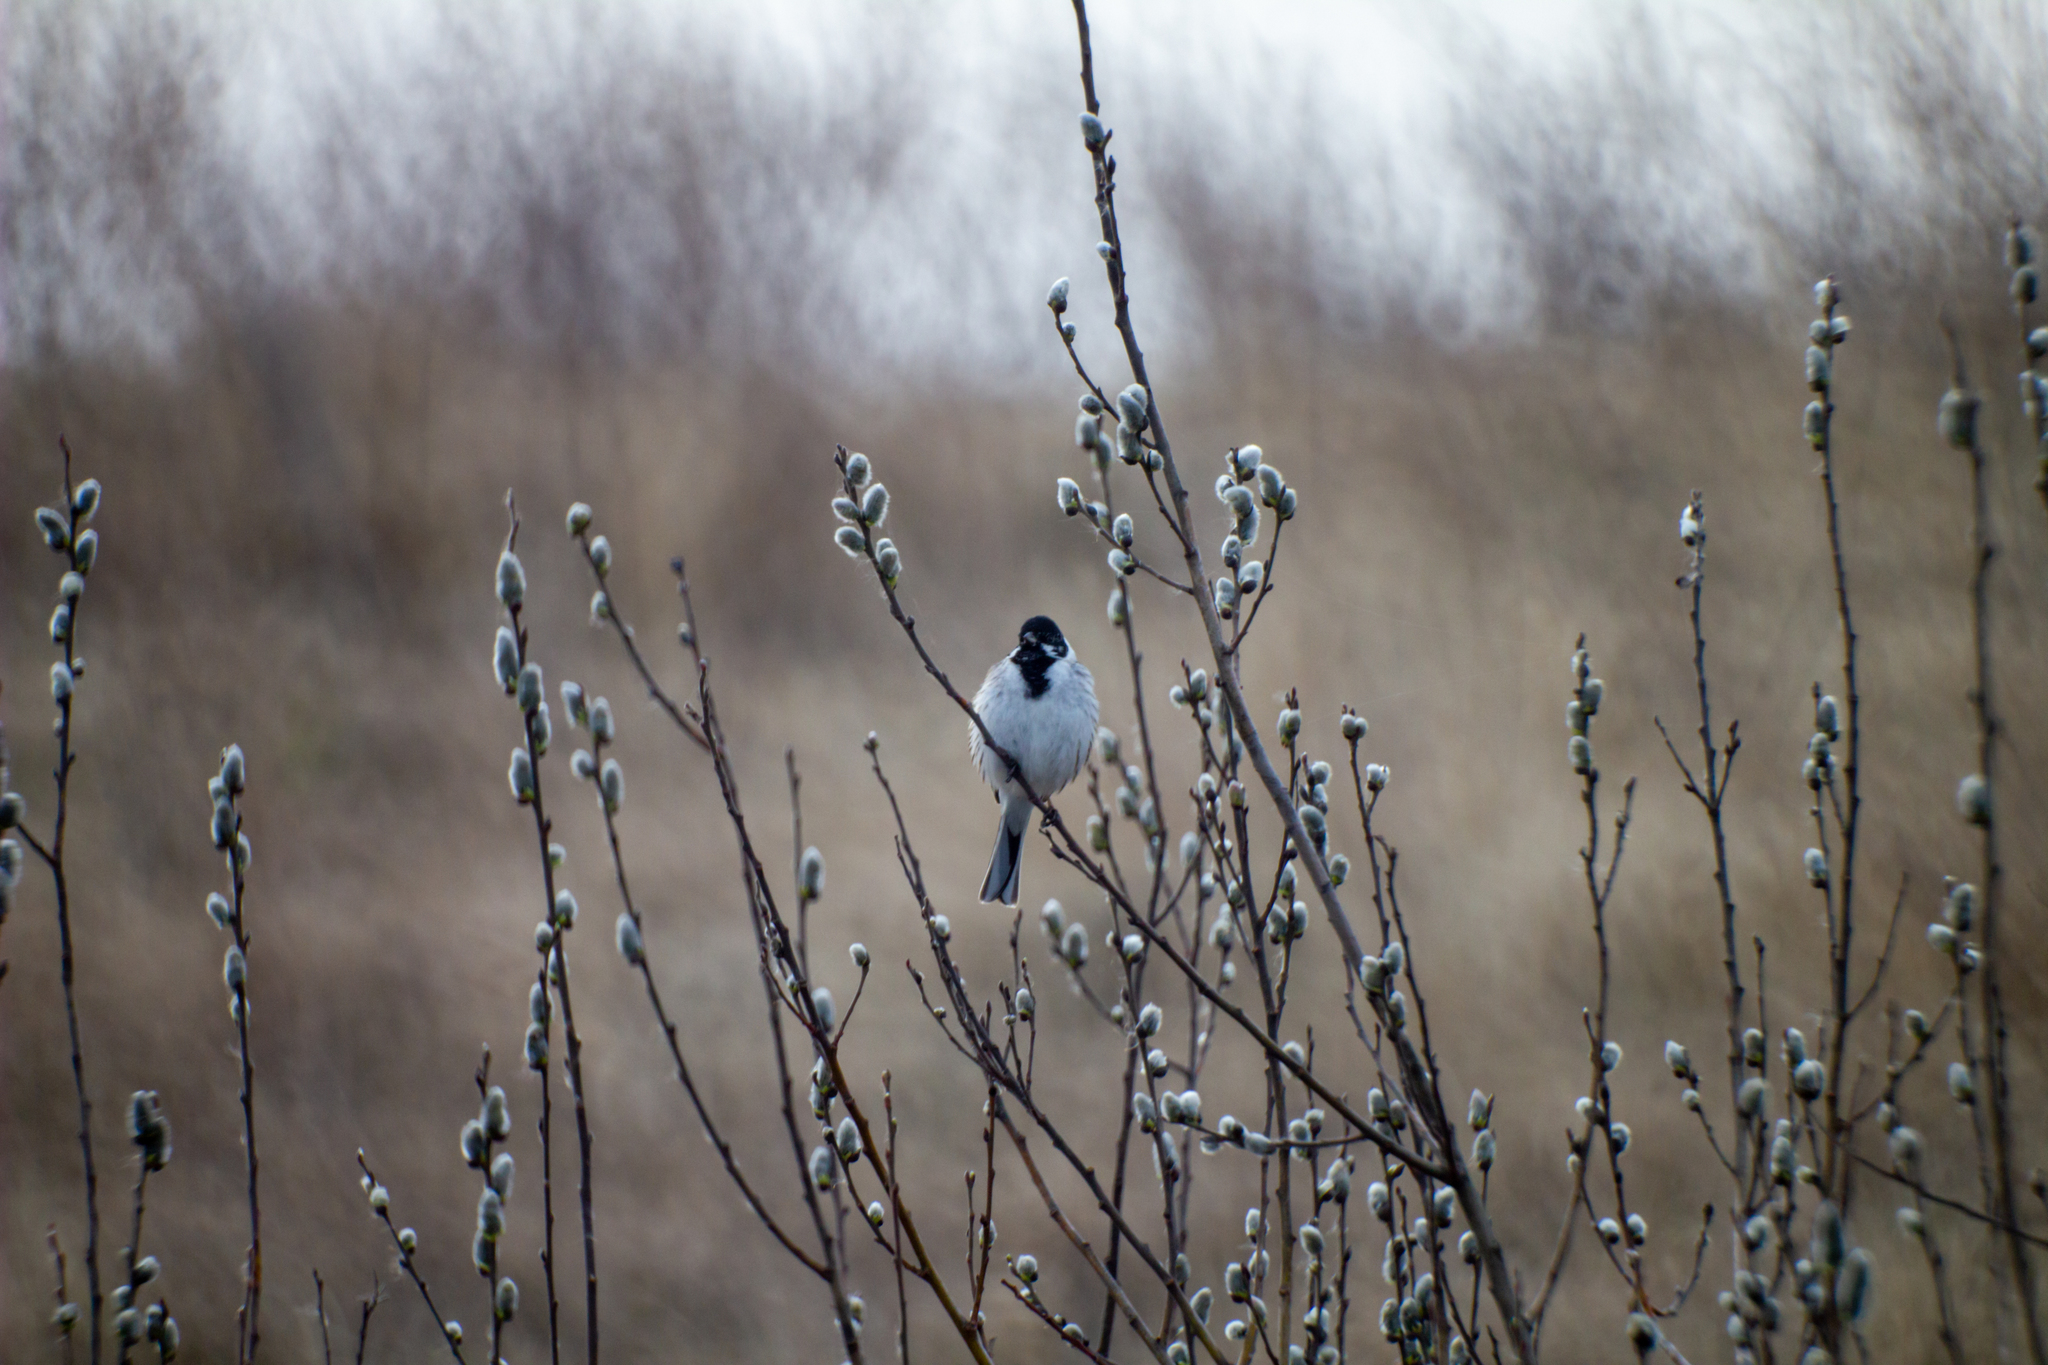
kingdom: Animalia
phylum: Chordata
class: Aves
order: Passeriformes
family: Emberizidae
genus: Emberiza
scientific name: Emberiza schoeniclus
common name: Reed bunting
